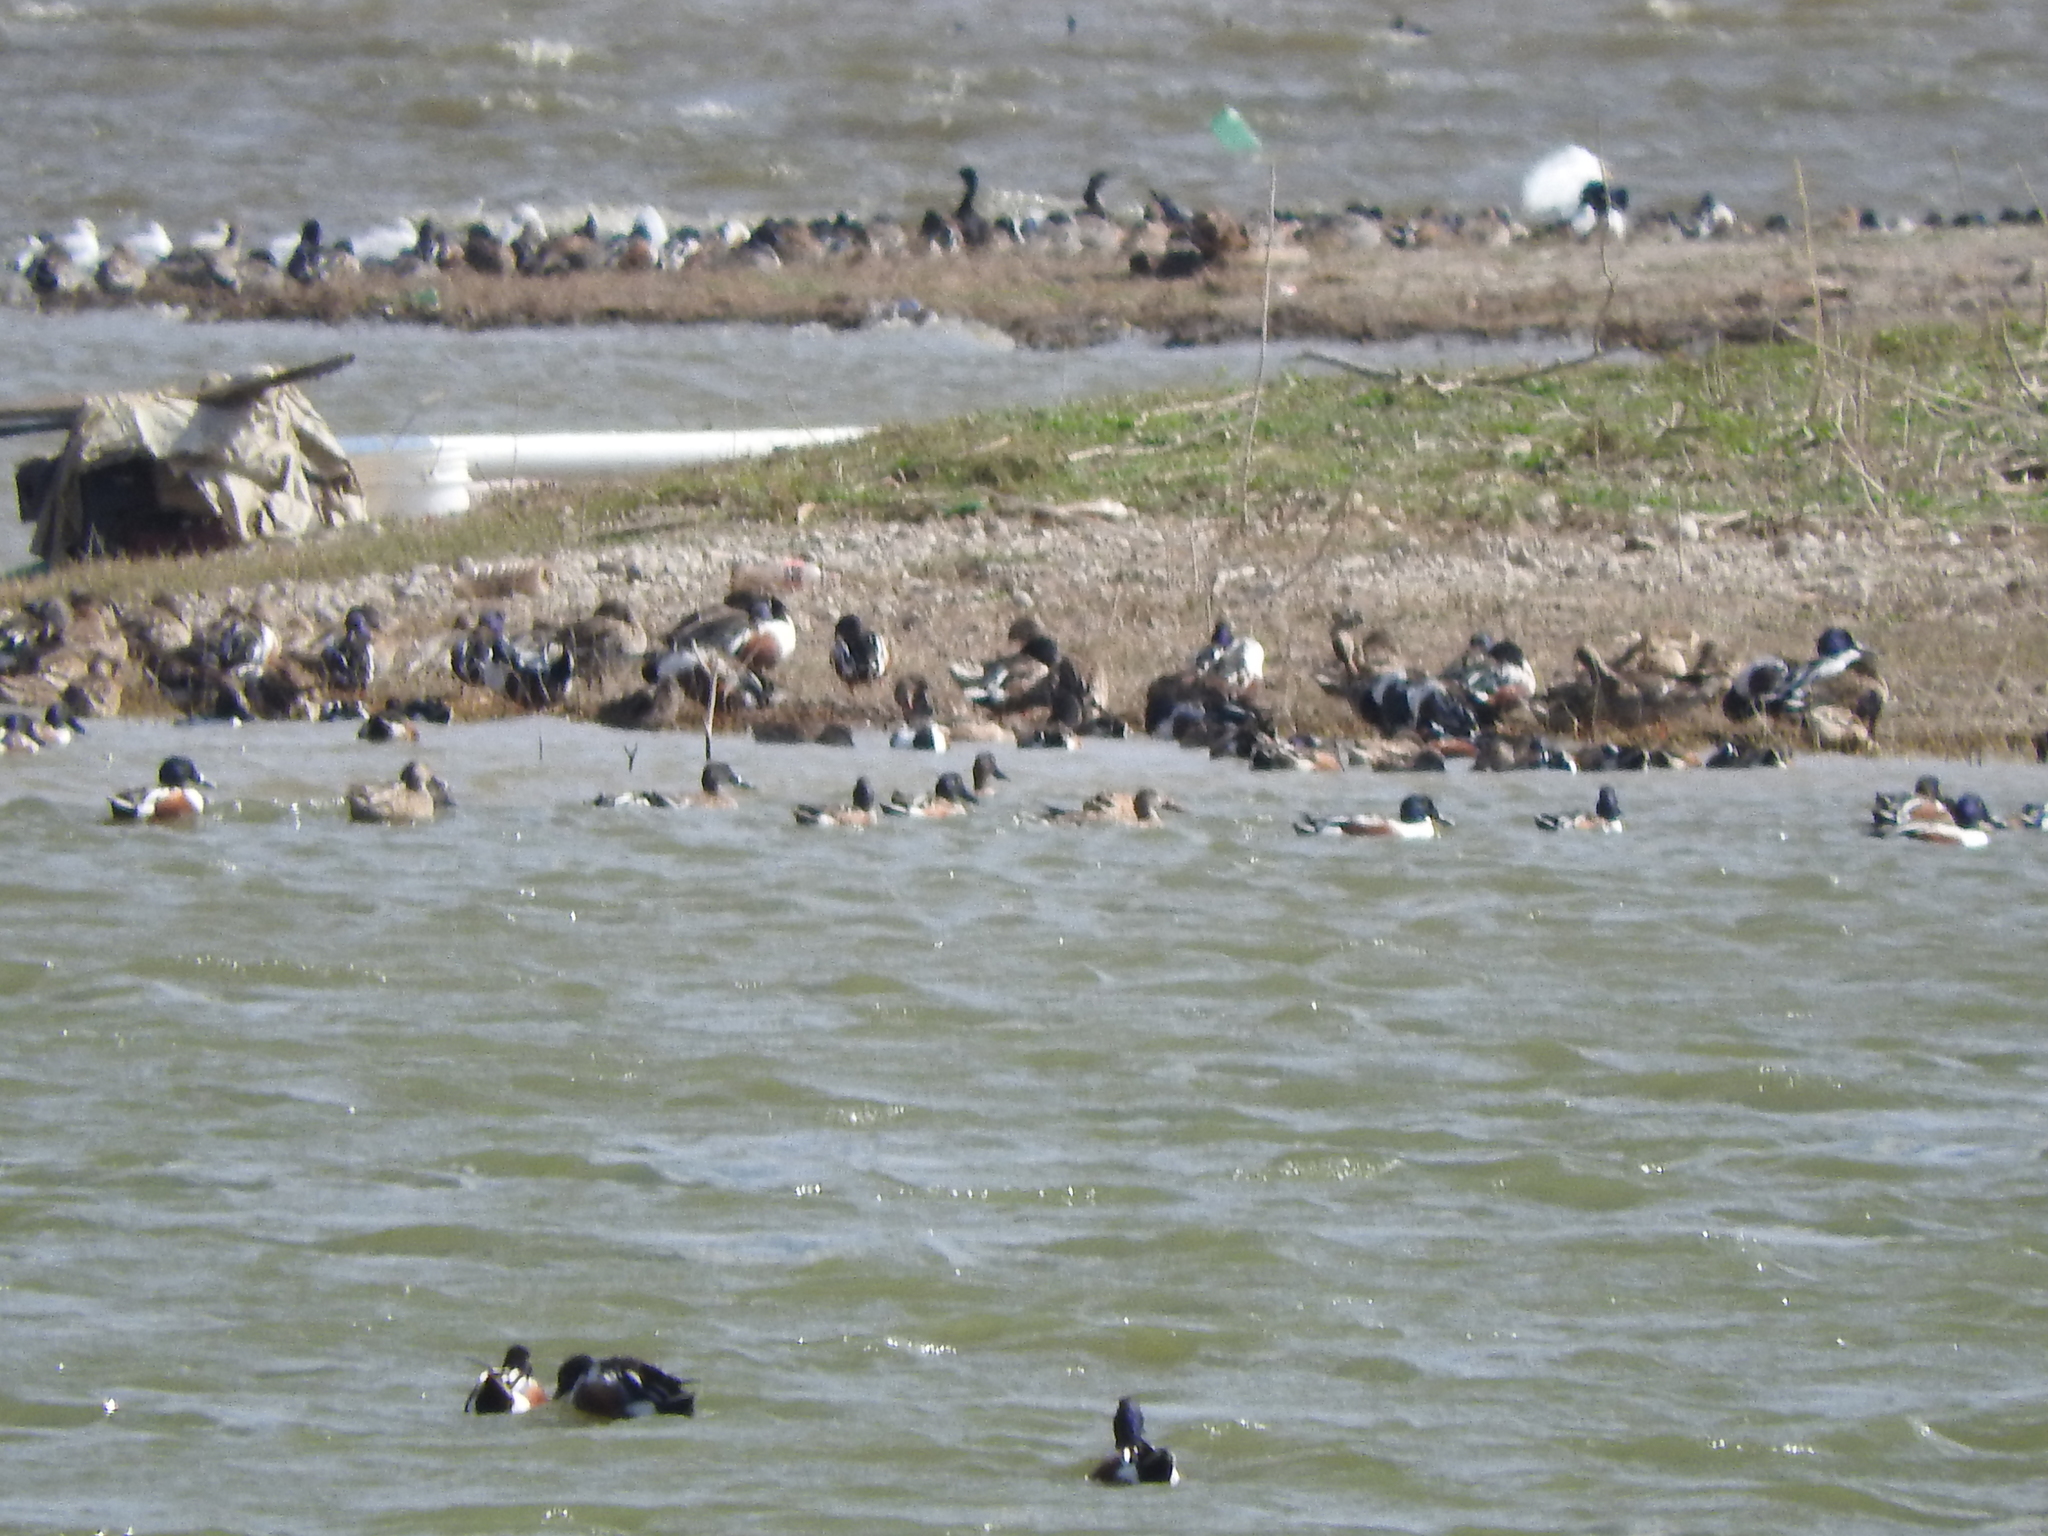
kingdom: Animalia
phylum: Chordata
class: Aves
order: Anseriformes
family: Anatidae
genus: Spatula
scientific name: Spatula clypeata
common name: Northern shoveler
